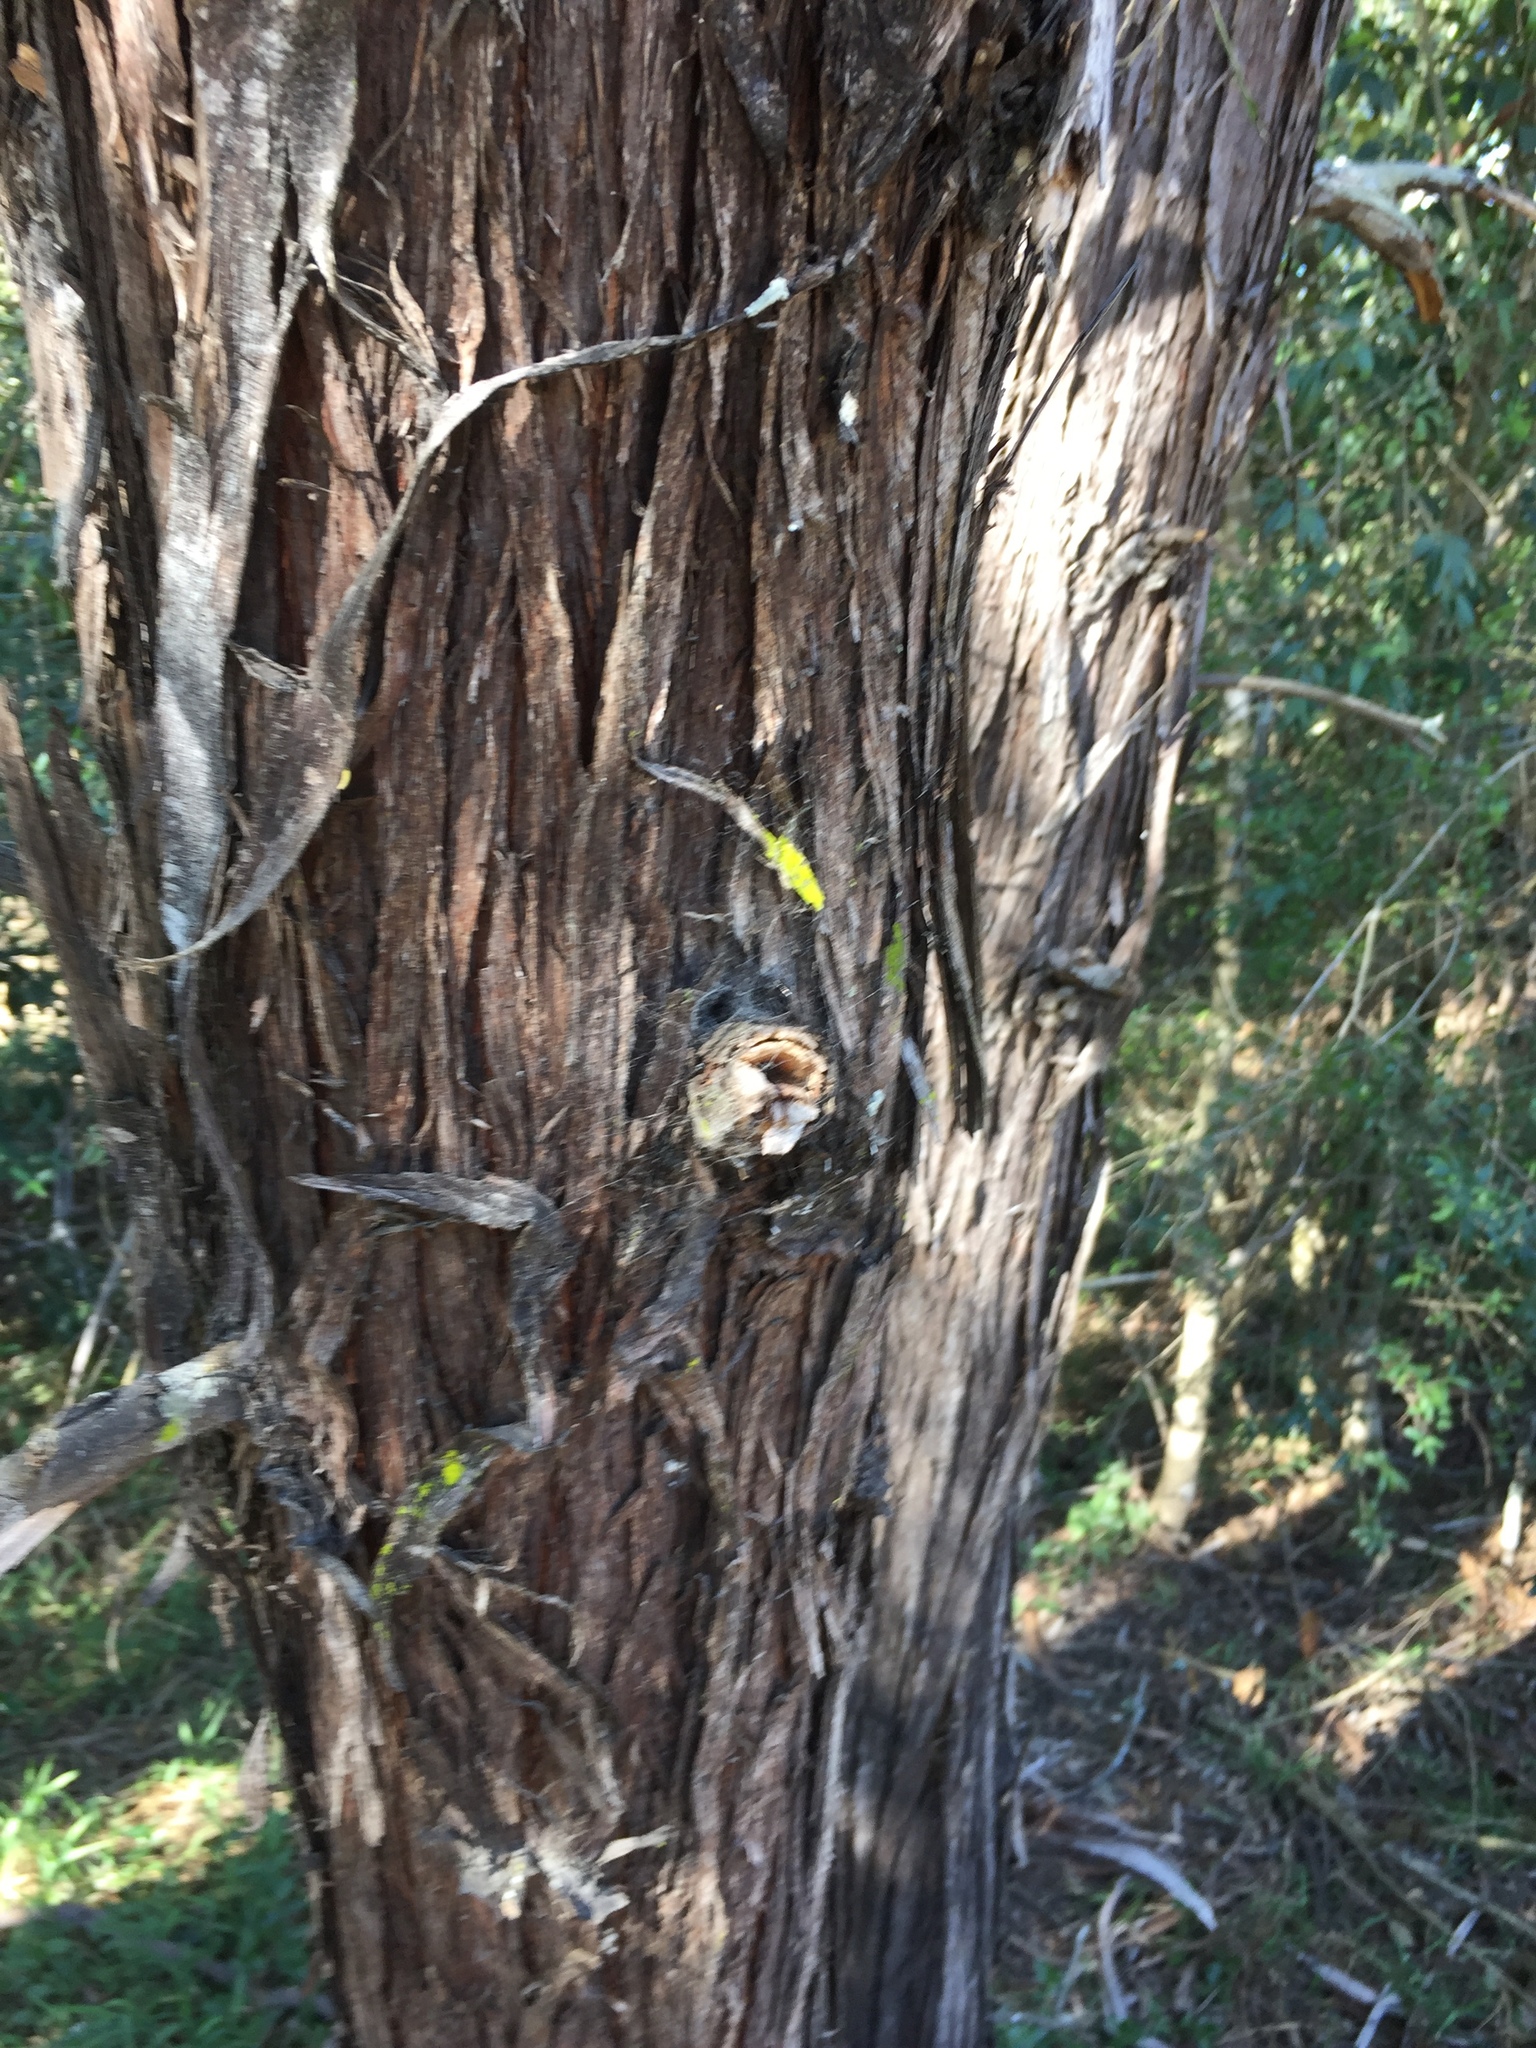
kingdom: Plantae
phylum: Tracheophyta
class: Magnoliopsida
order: Fabales
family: Fabaceae
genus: Acacia
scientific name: Acacia binervia
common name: Coast myall
